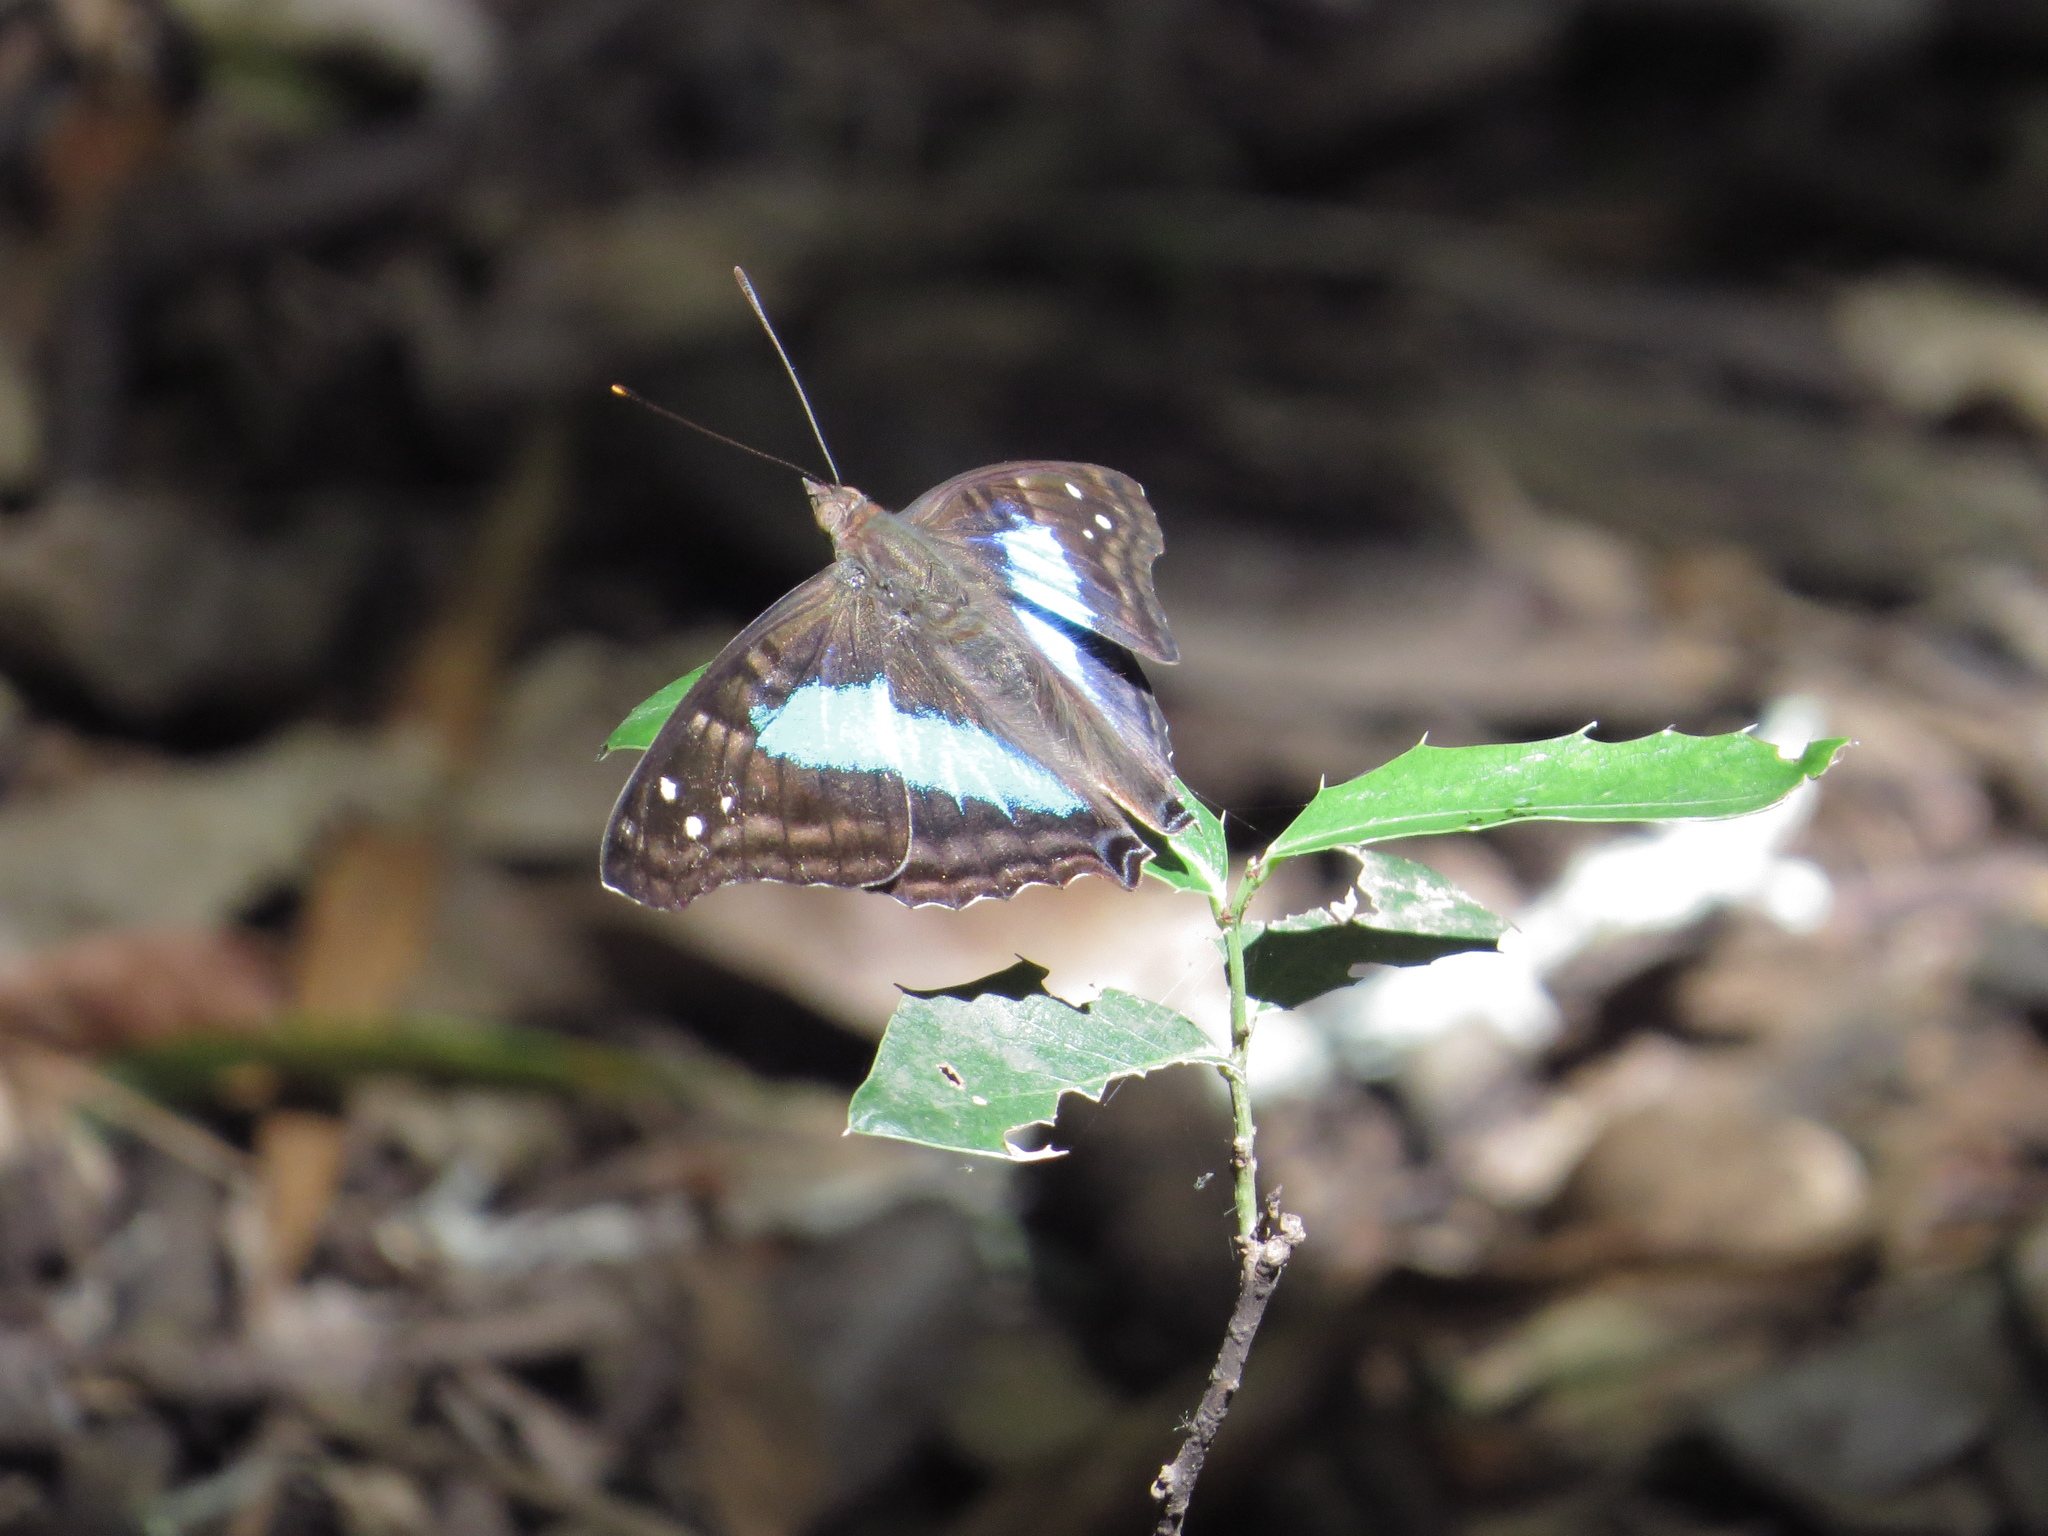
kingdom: Animalia
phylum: Arthropoda
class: Insecta
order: Lepidoptera
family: Nymphalidae
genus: Doxocopa
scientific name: Doxocopa laurentia
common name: Turquoise emperor
